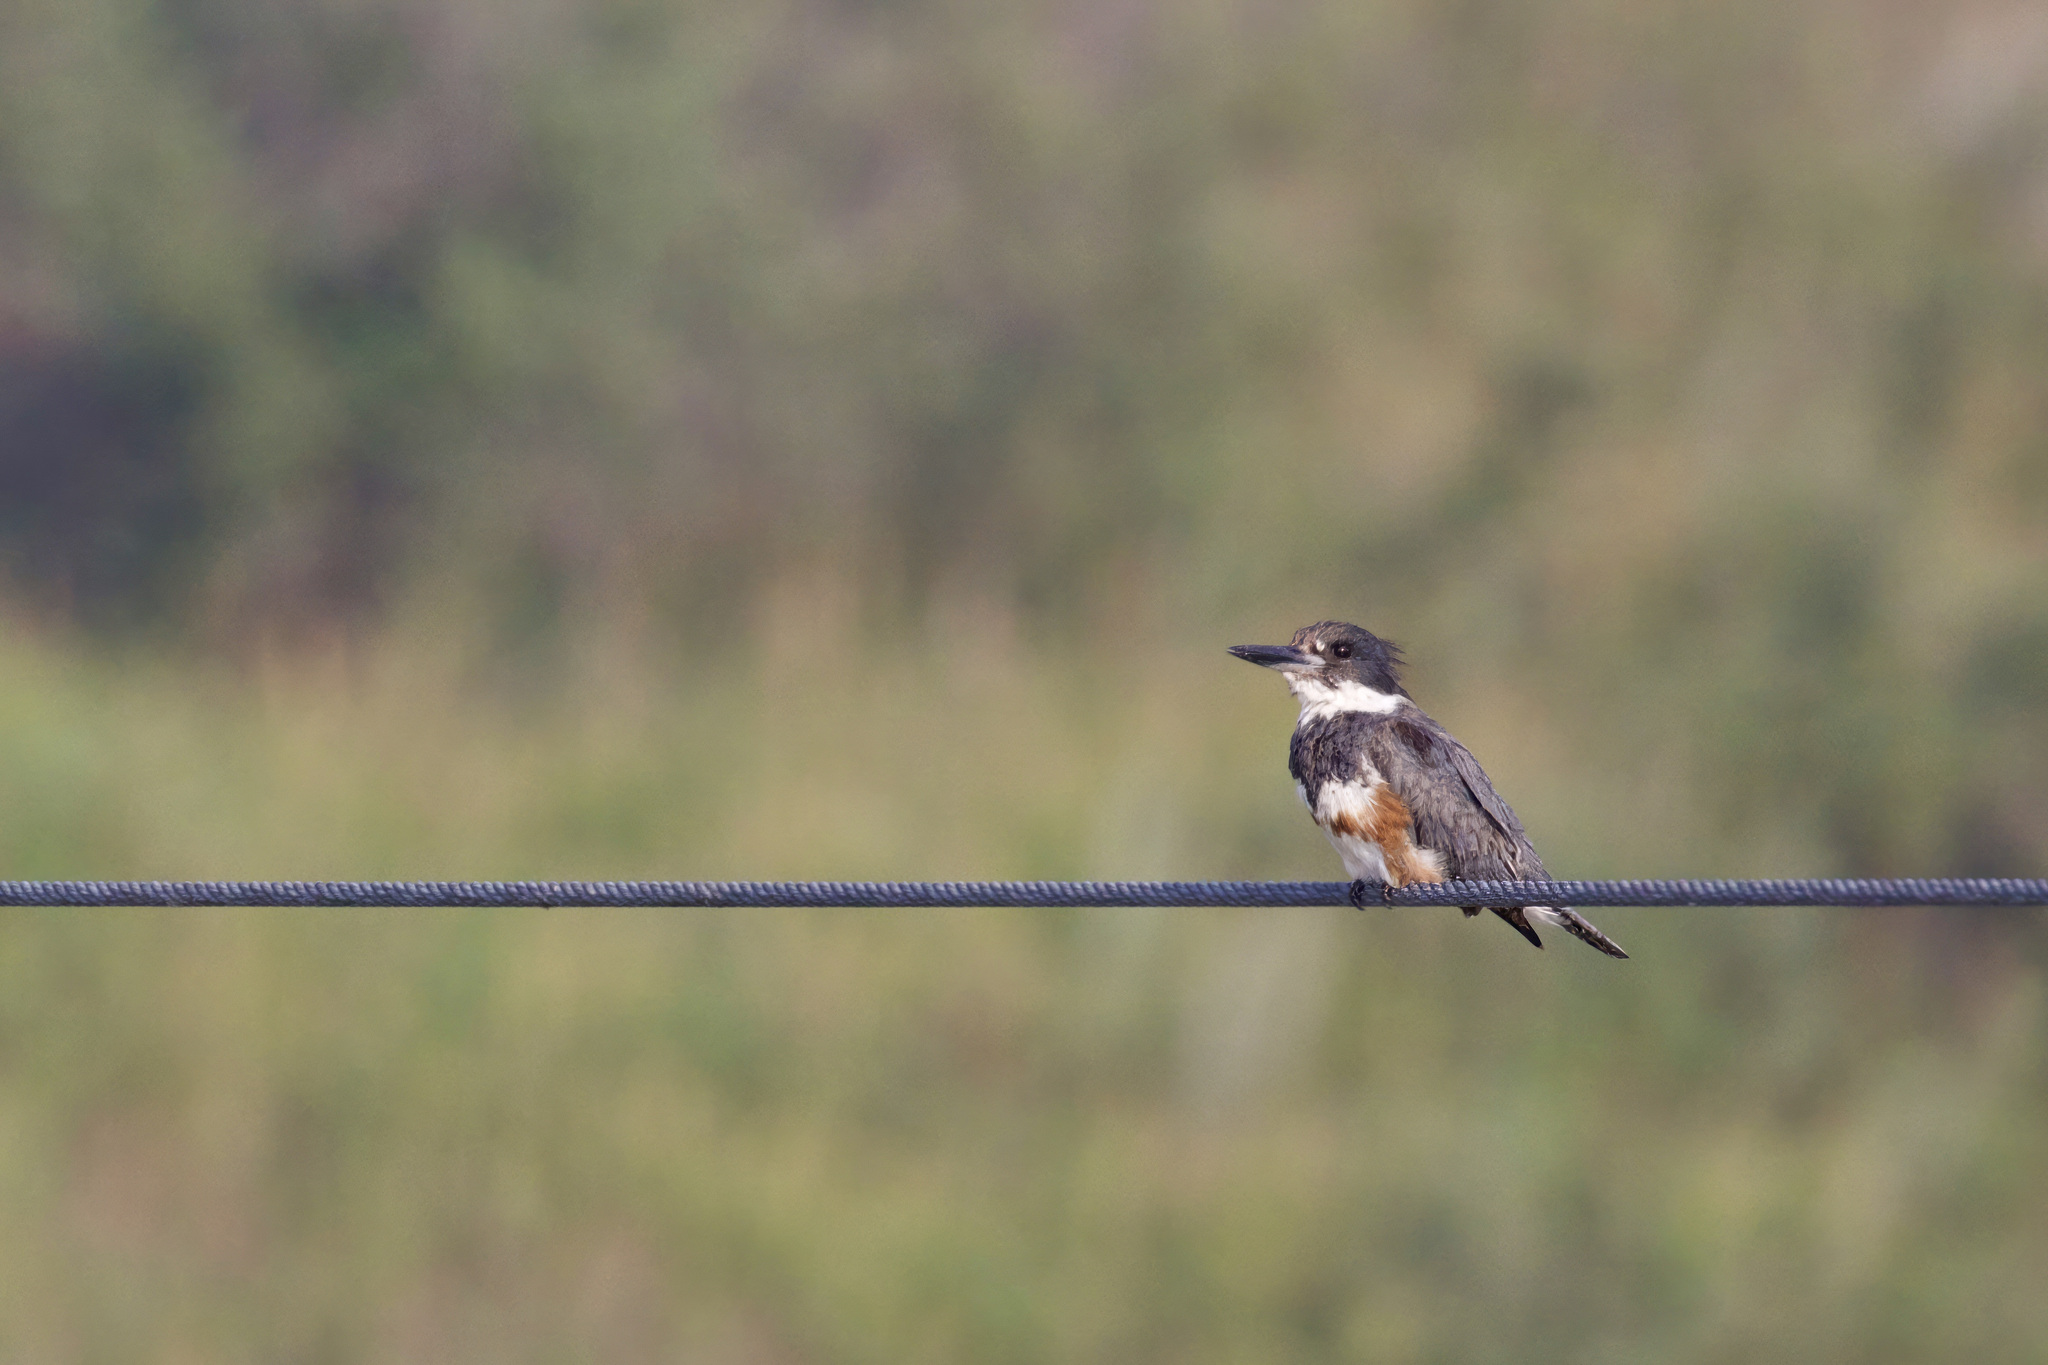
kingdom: Animalia
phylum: Chordata
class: Aves
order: Coraciiformes
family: Alcedinidae
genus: Megaceryle
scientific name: Megaceryle alcyon
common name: Belted kingfisher
